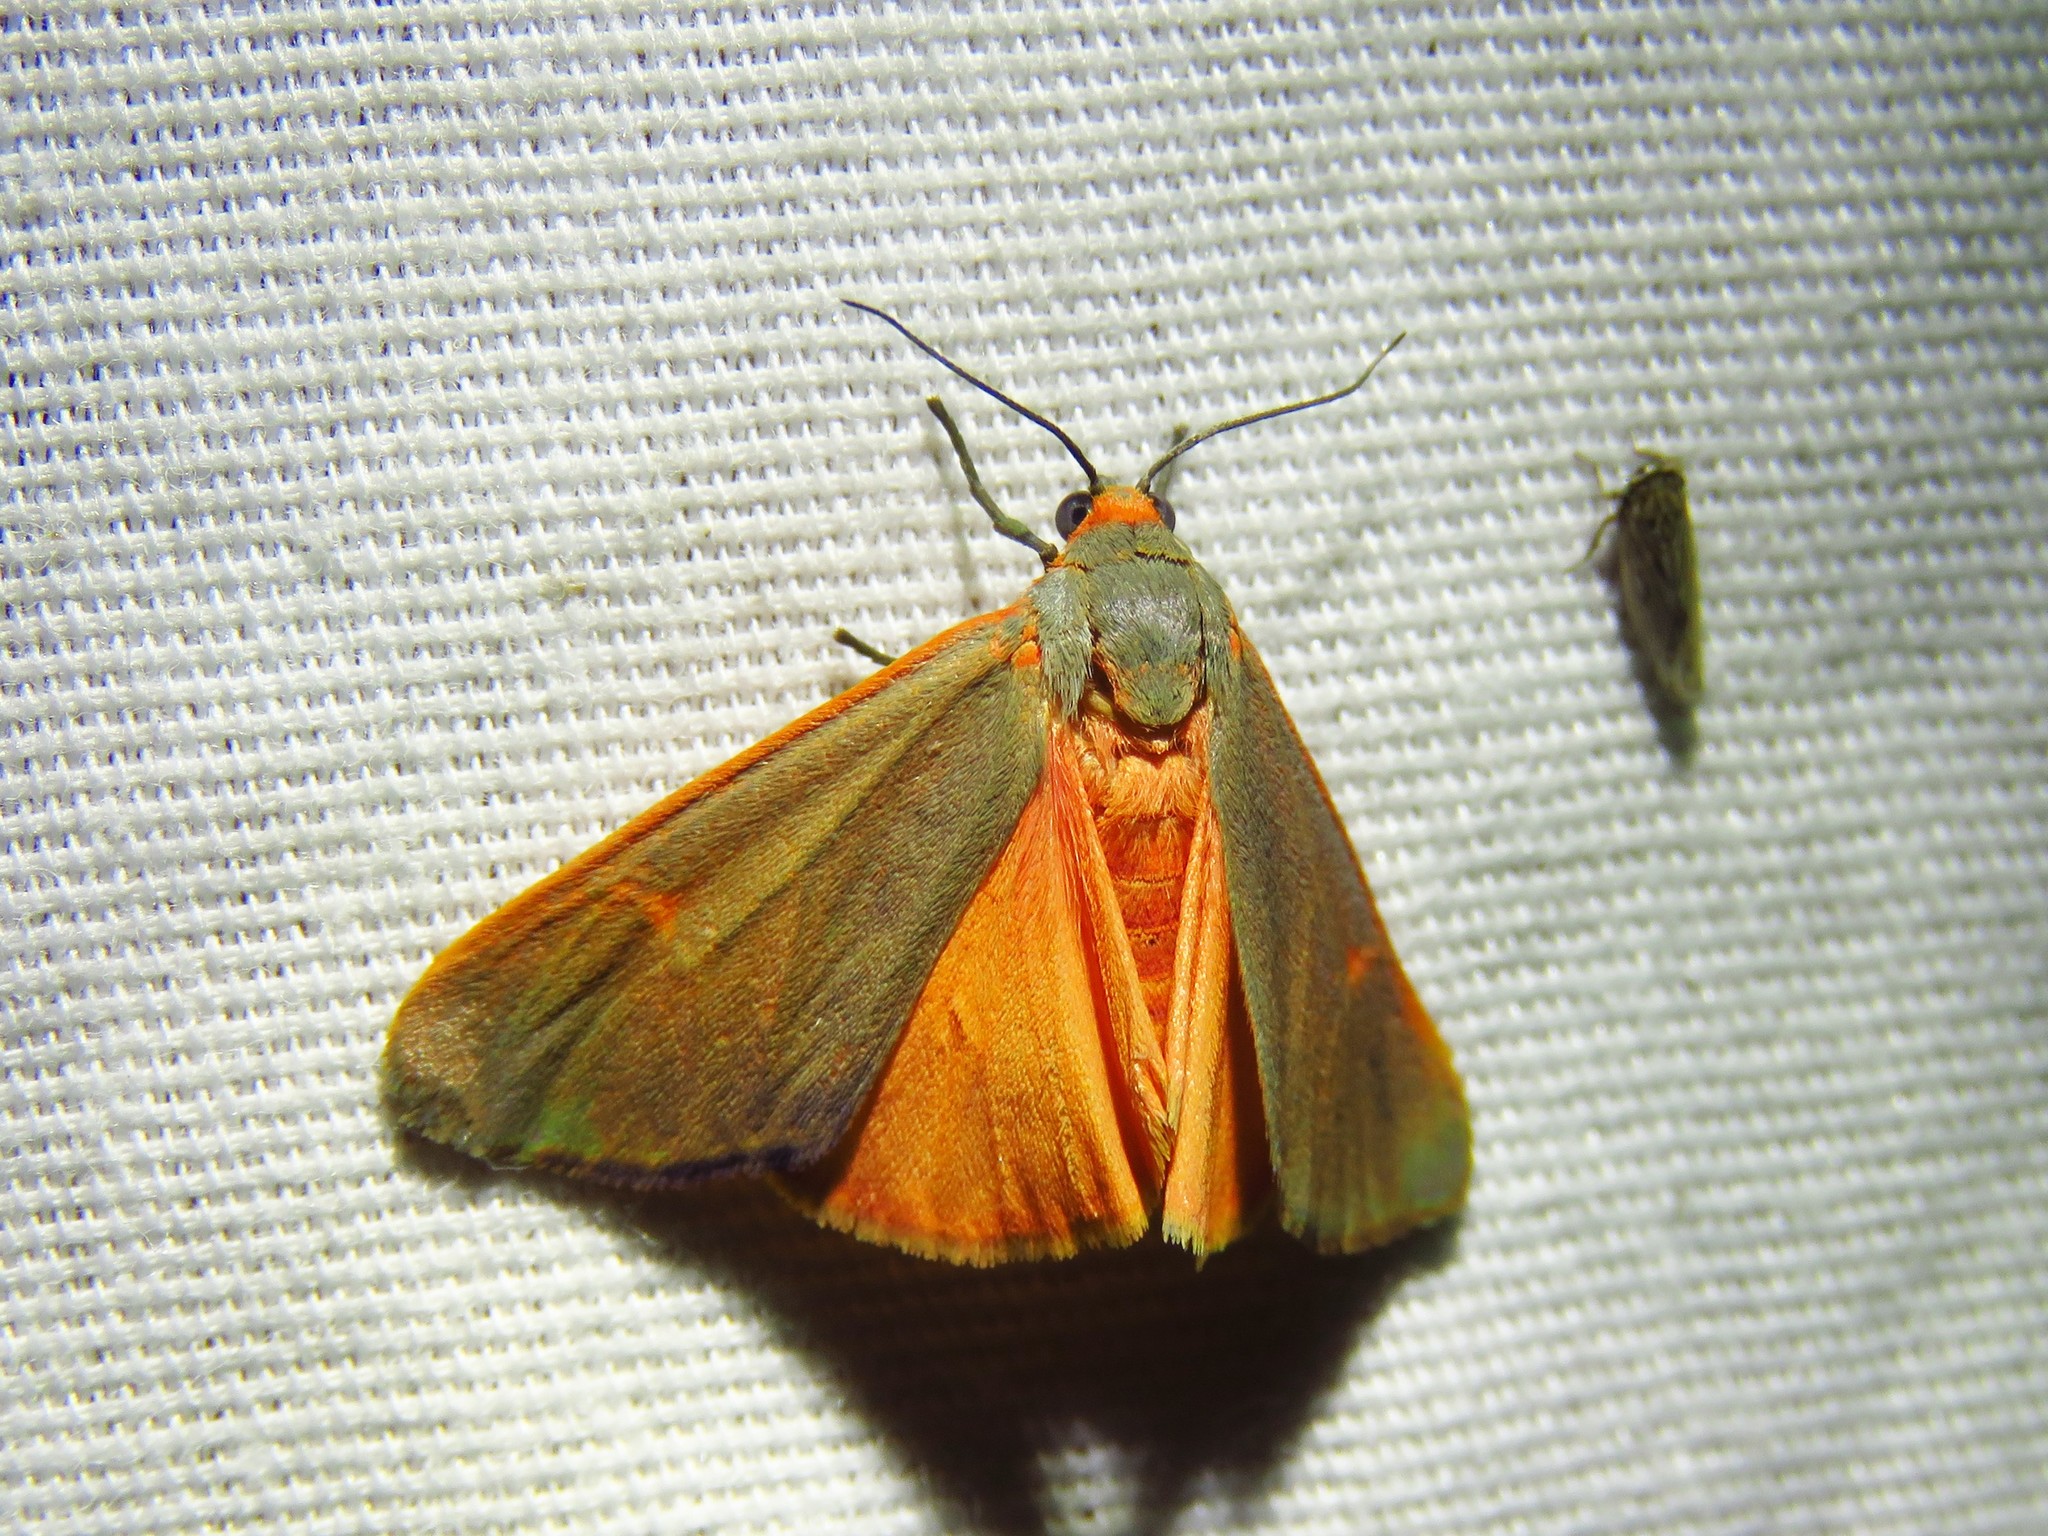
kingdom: Animalia
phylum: Arthropoda
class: Insecta
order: Lepidoptera
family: Erebidae
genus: Virbia
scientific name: Virbia costata
